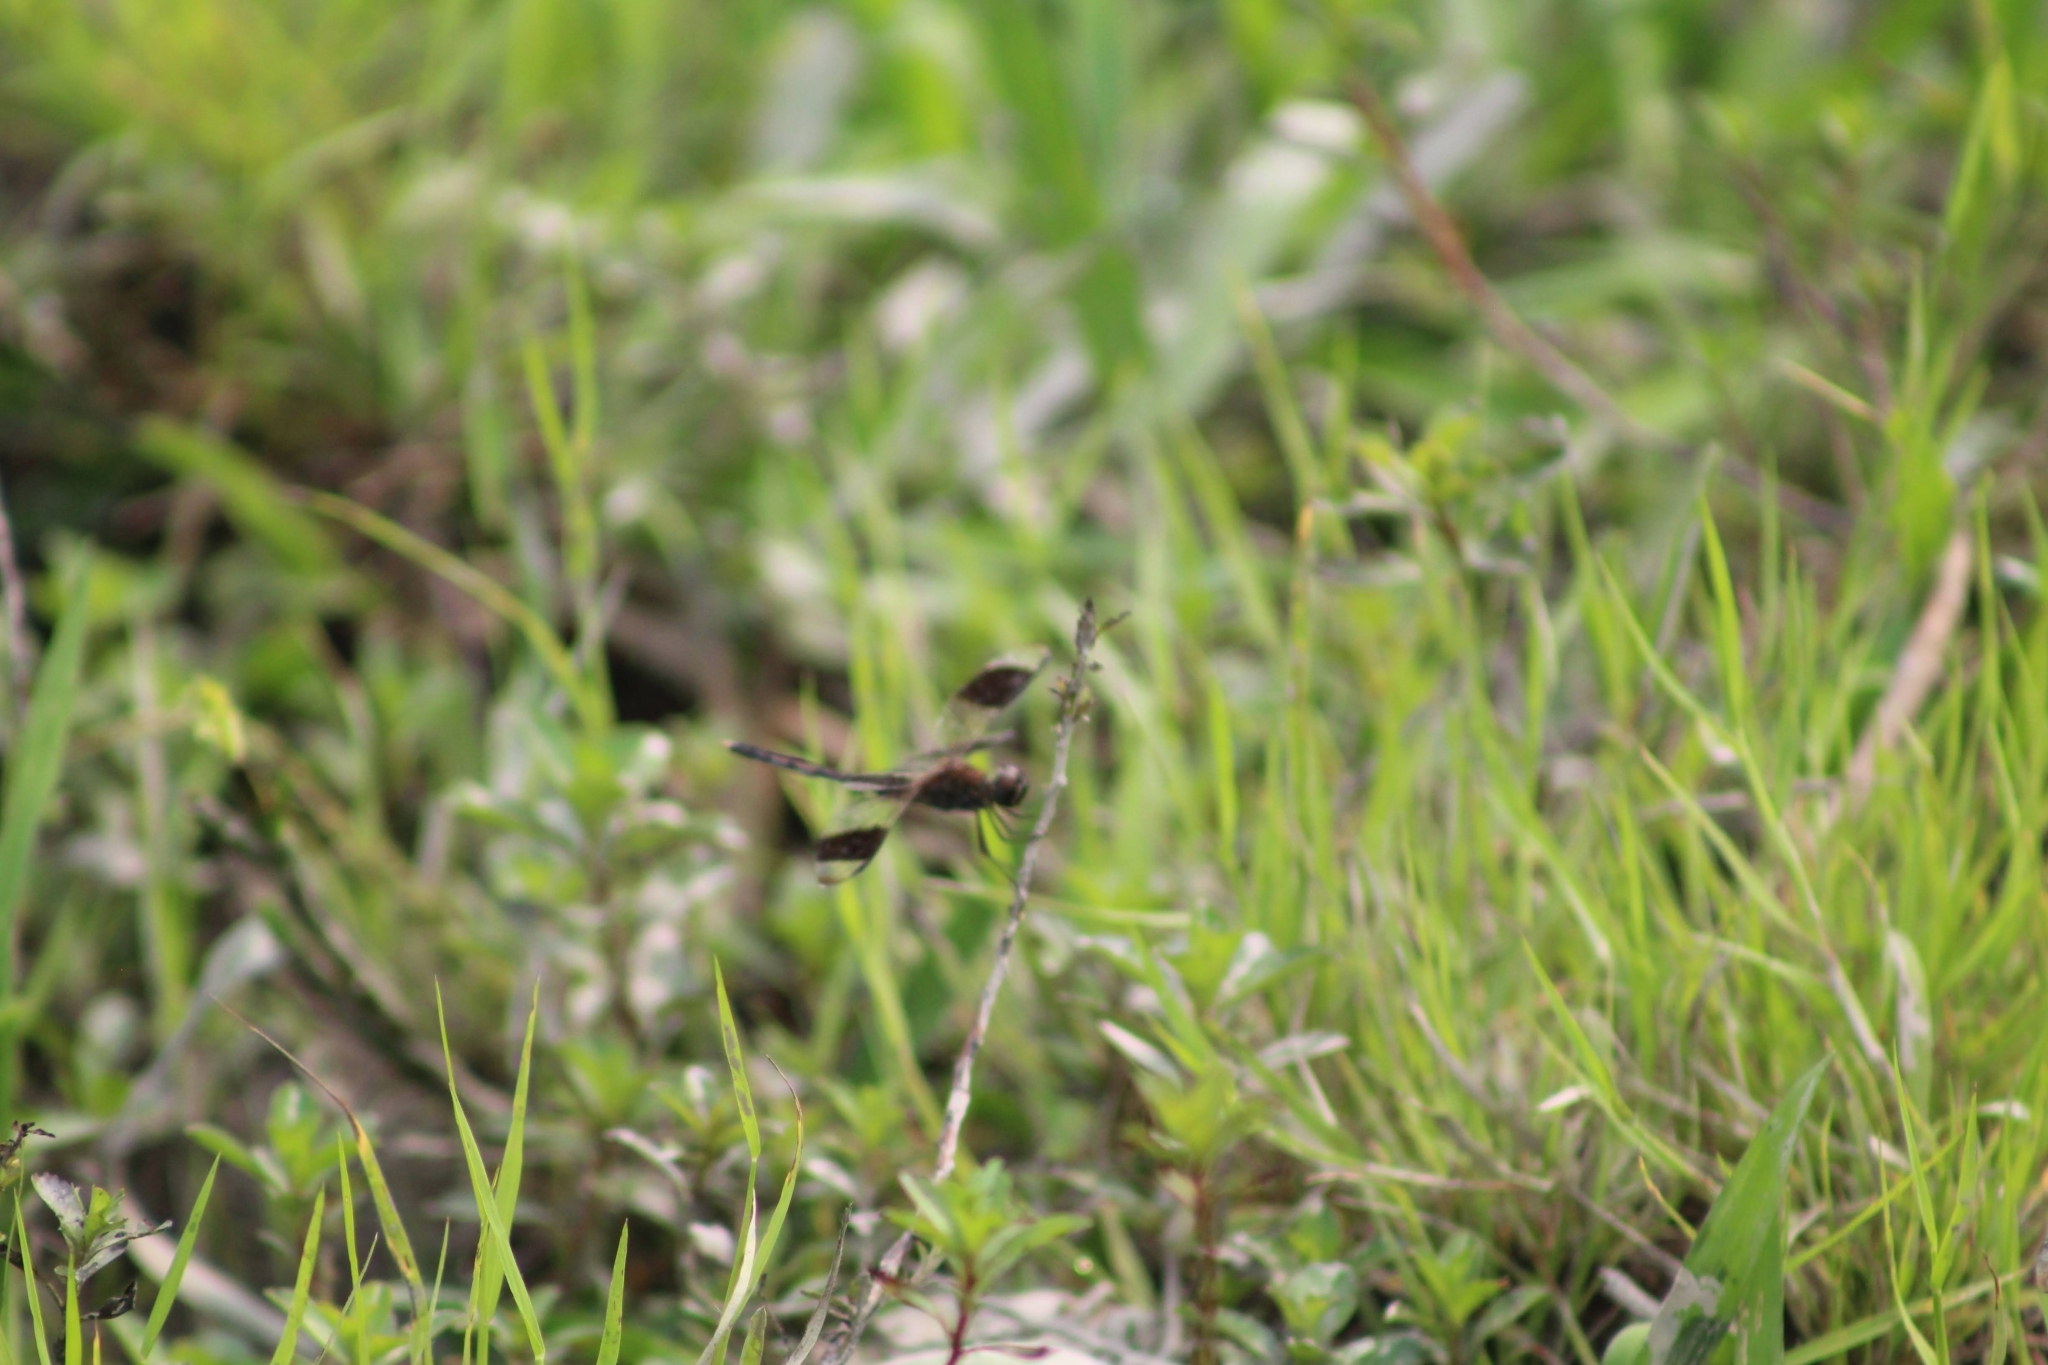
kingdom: Animalia
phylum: Arthropoda
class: Insecta
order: Odonata
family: Libellulidae
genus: Erythrodiplax
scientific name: Erythrodiplax umbrata
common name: Band-winged dragonlet
